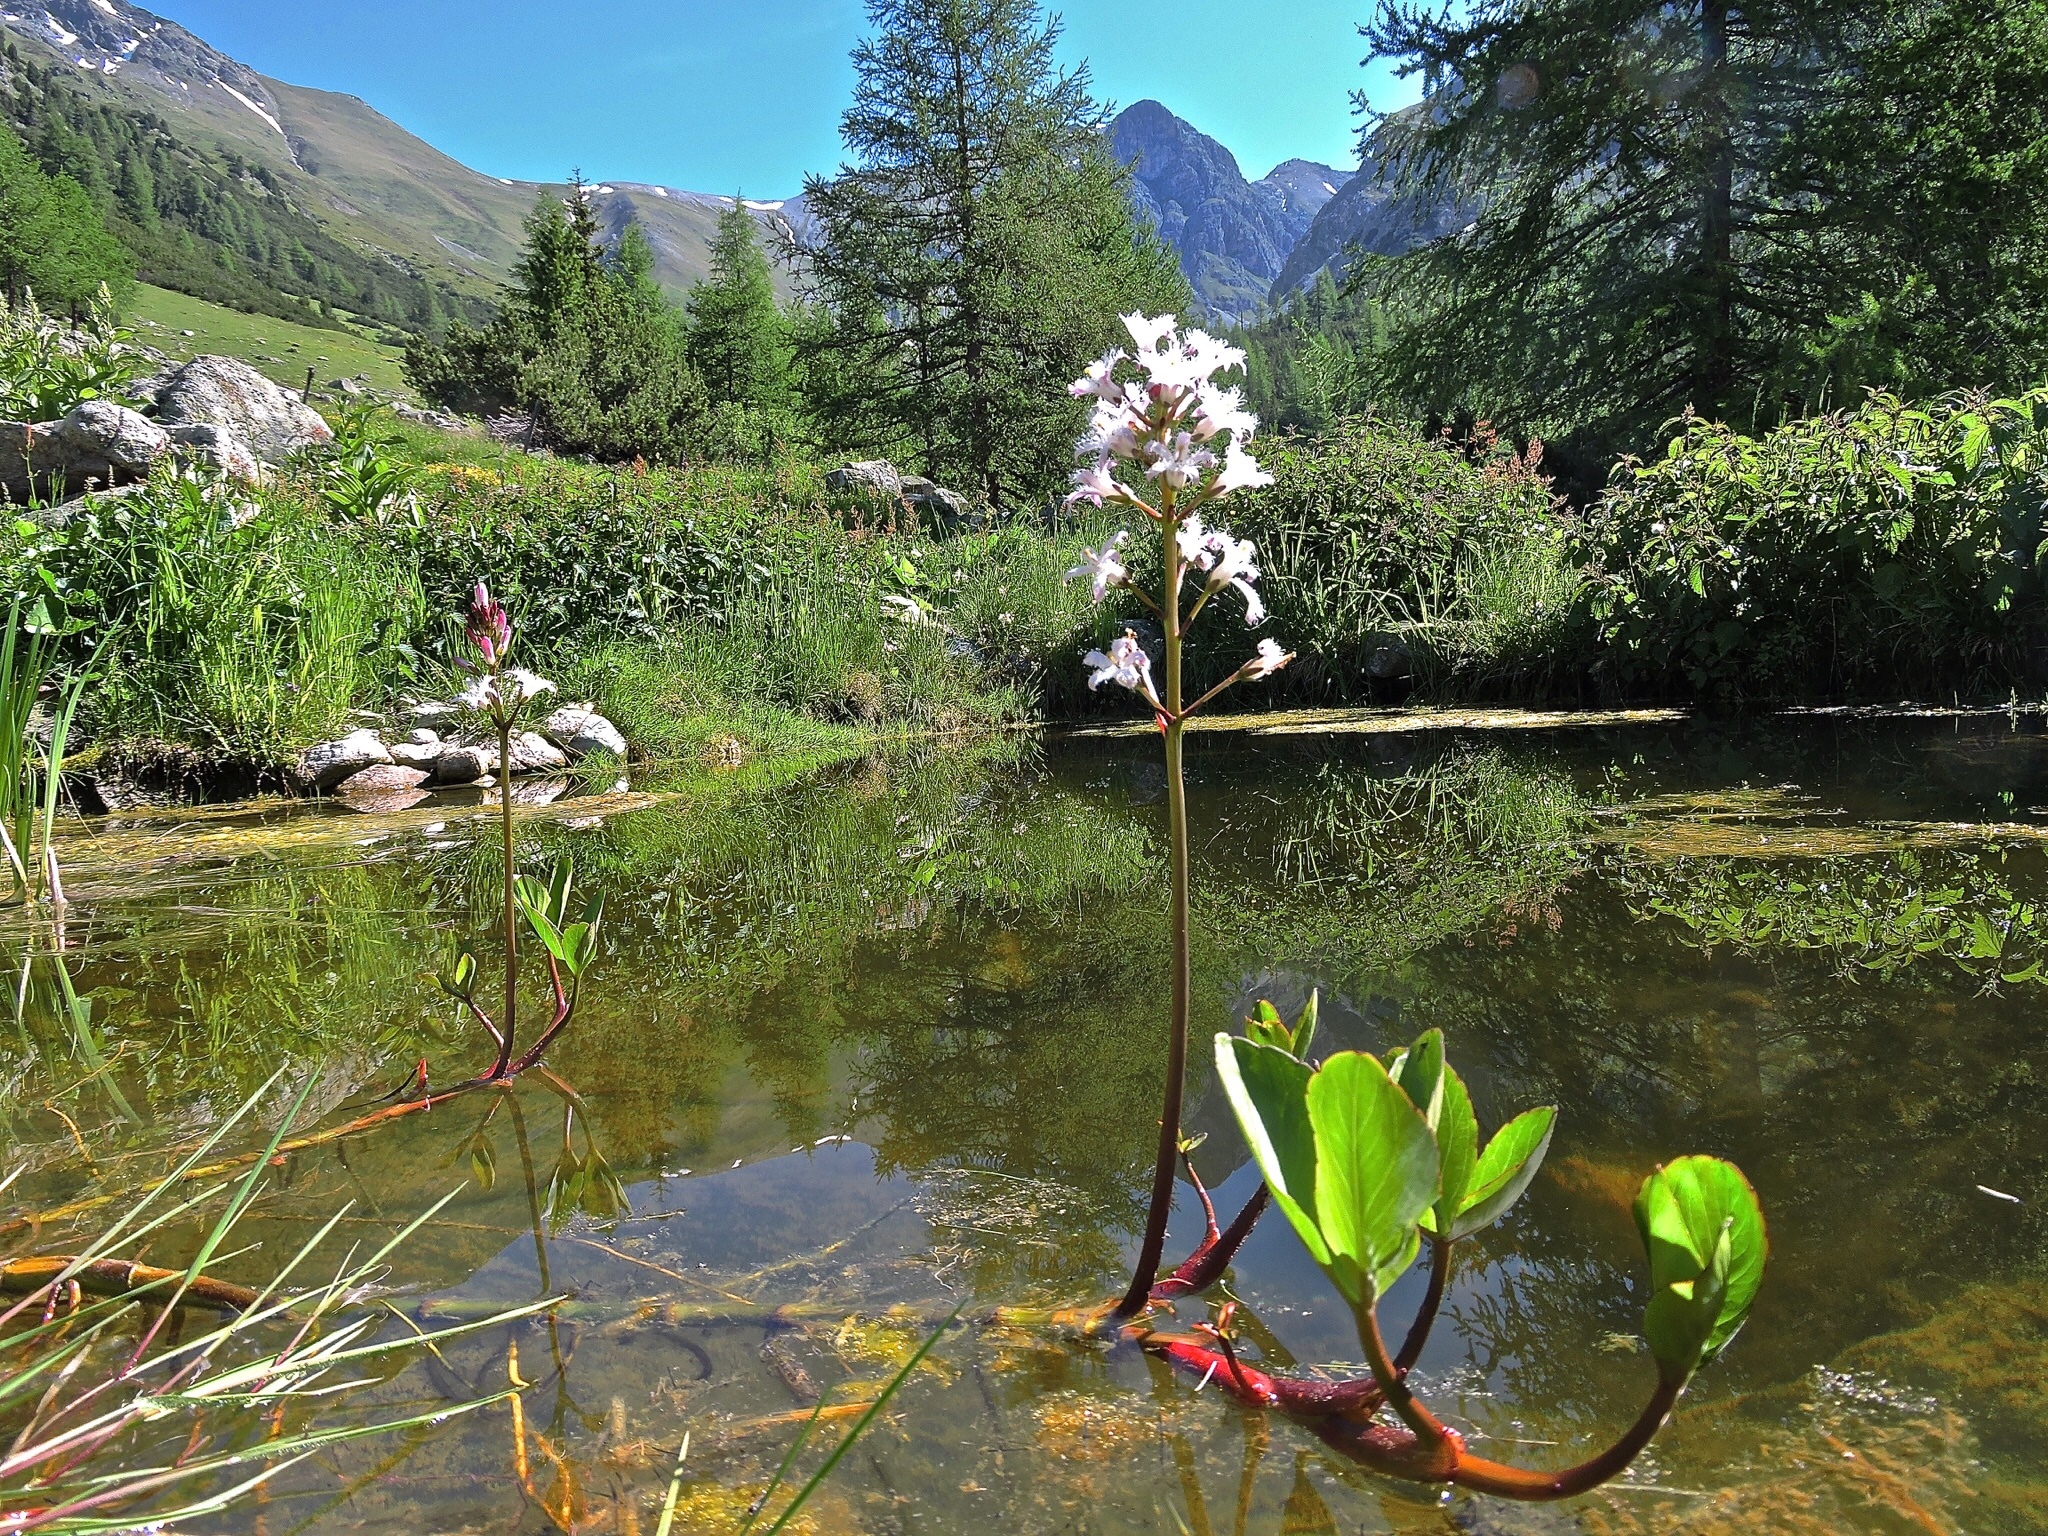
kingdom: Plantae
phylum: Tracheophyta
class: Magnoliopsida
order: Asterales
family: Menyanthaceae
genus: Menyanthes
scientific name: Menyanthes trifoliata
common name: Bogbean
